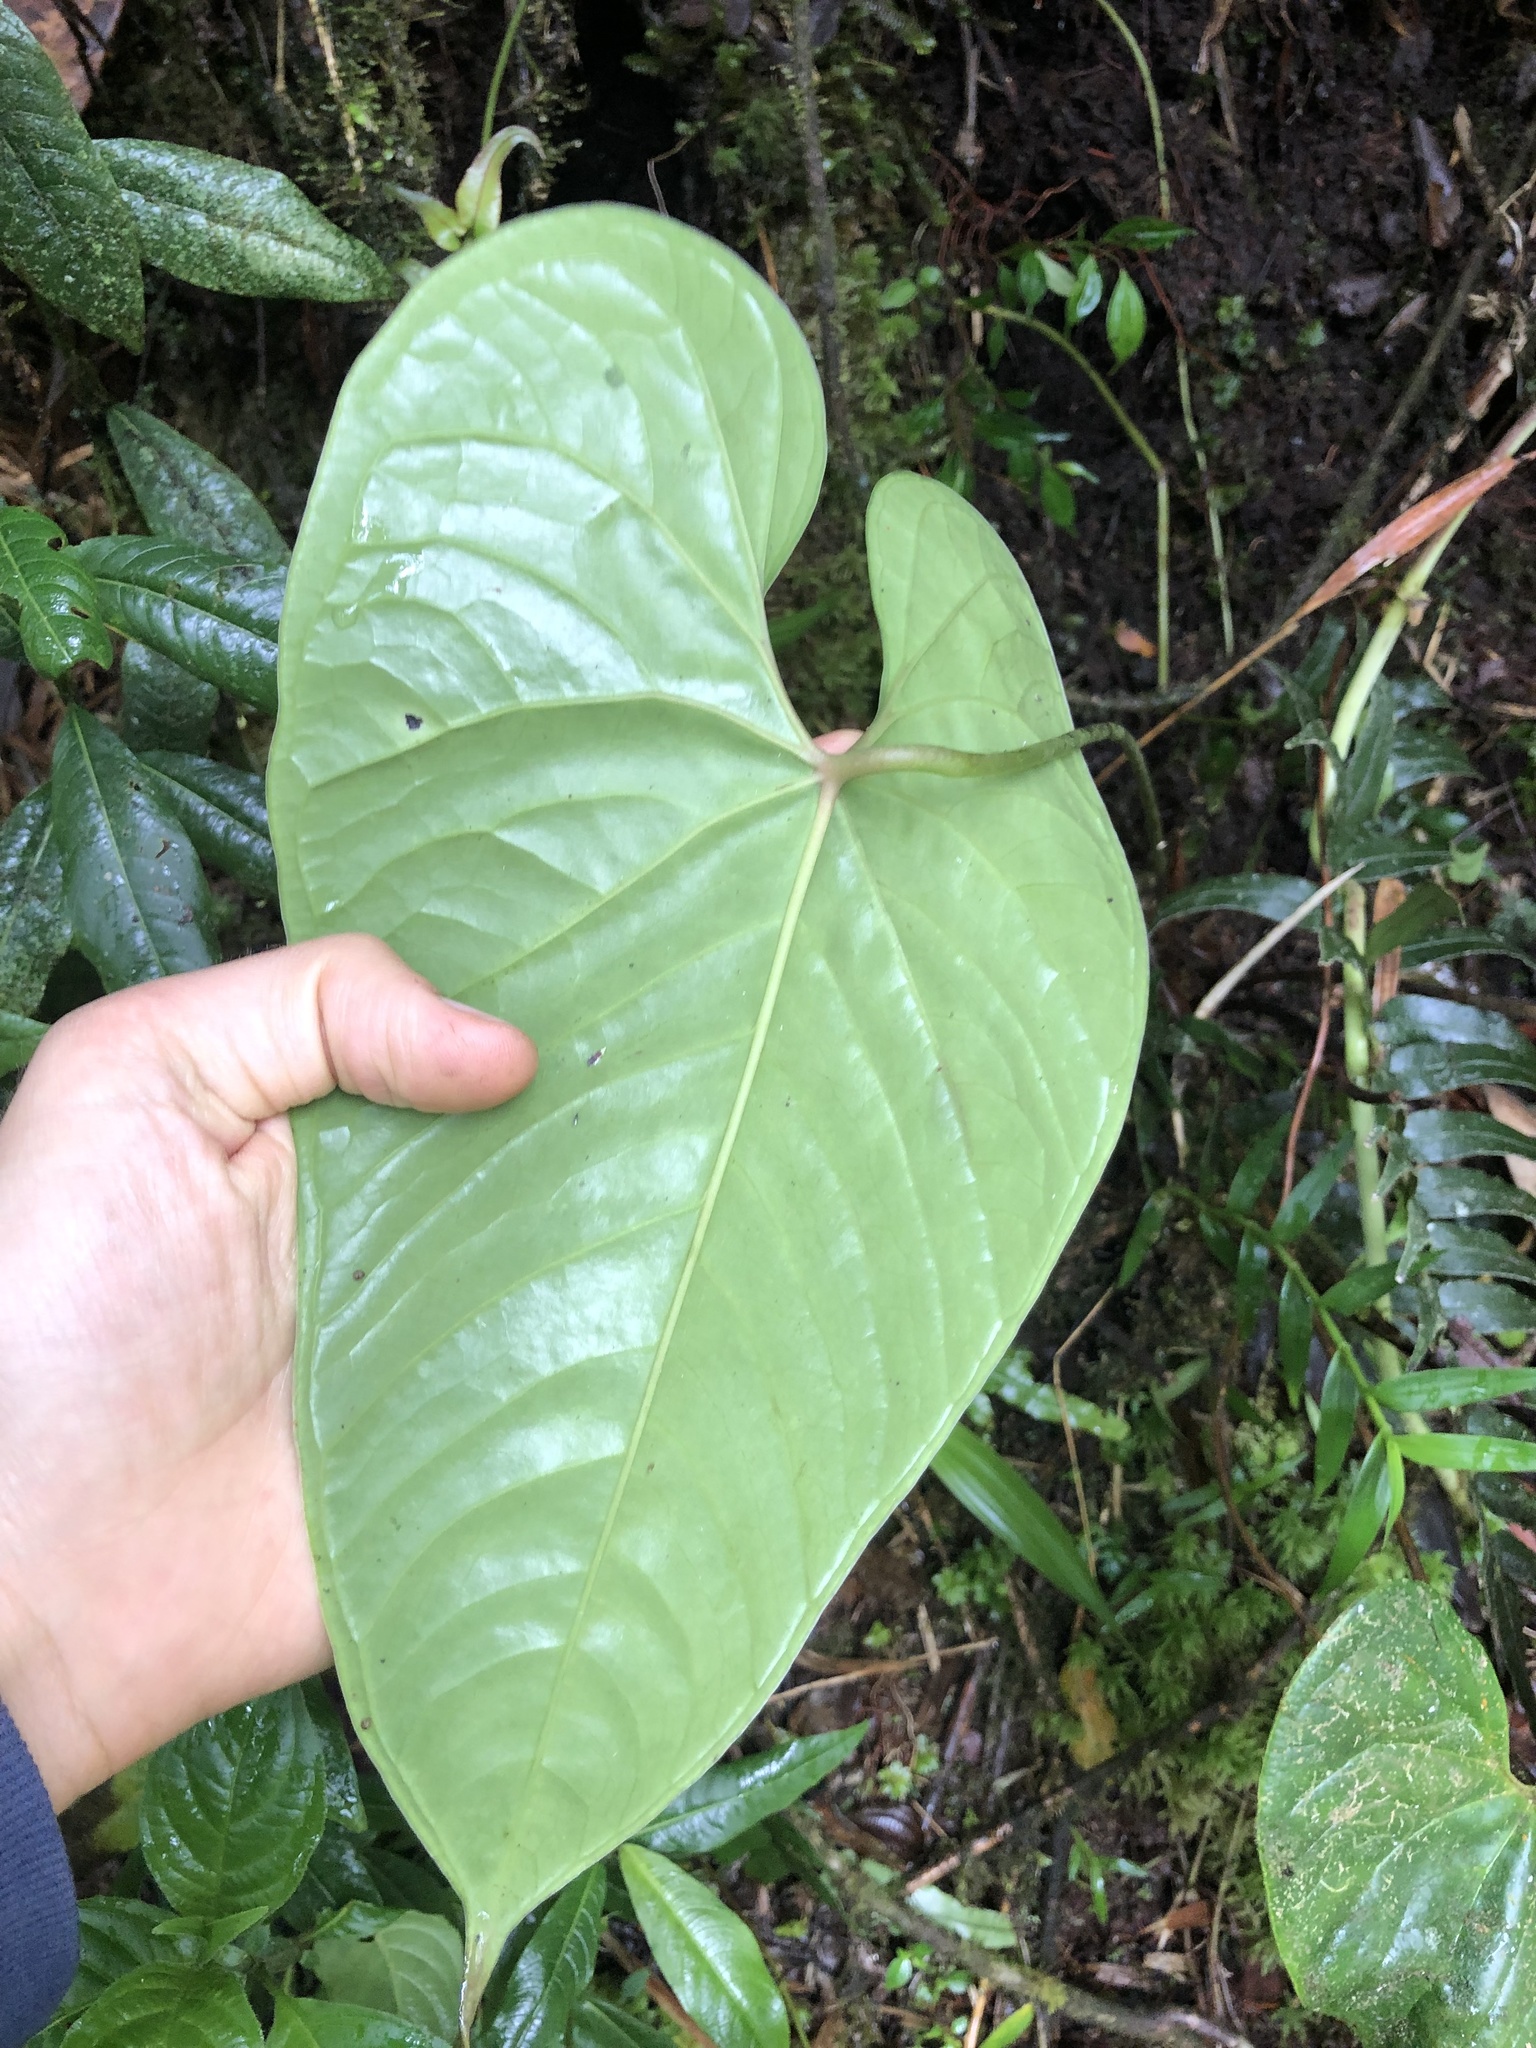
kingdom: Plantae
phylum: Tracheophyta
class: Liliopsida
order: Alismatales
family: Araceae
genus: Anthurium
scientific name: Anthurium caramantae
